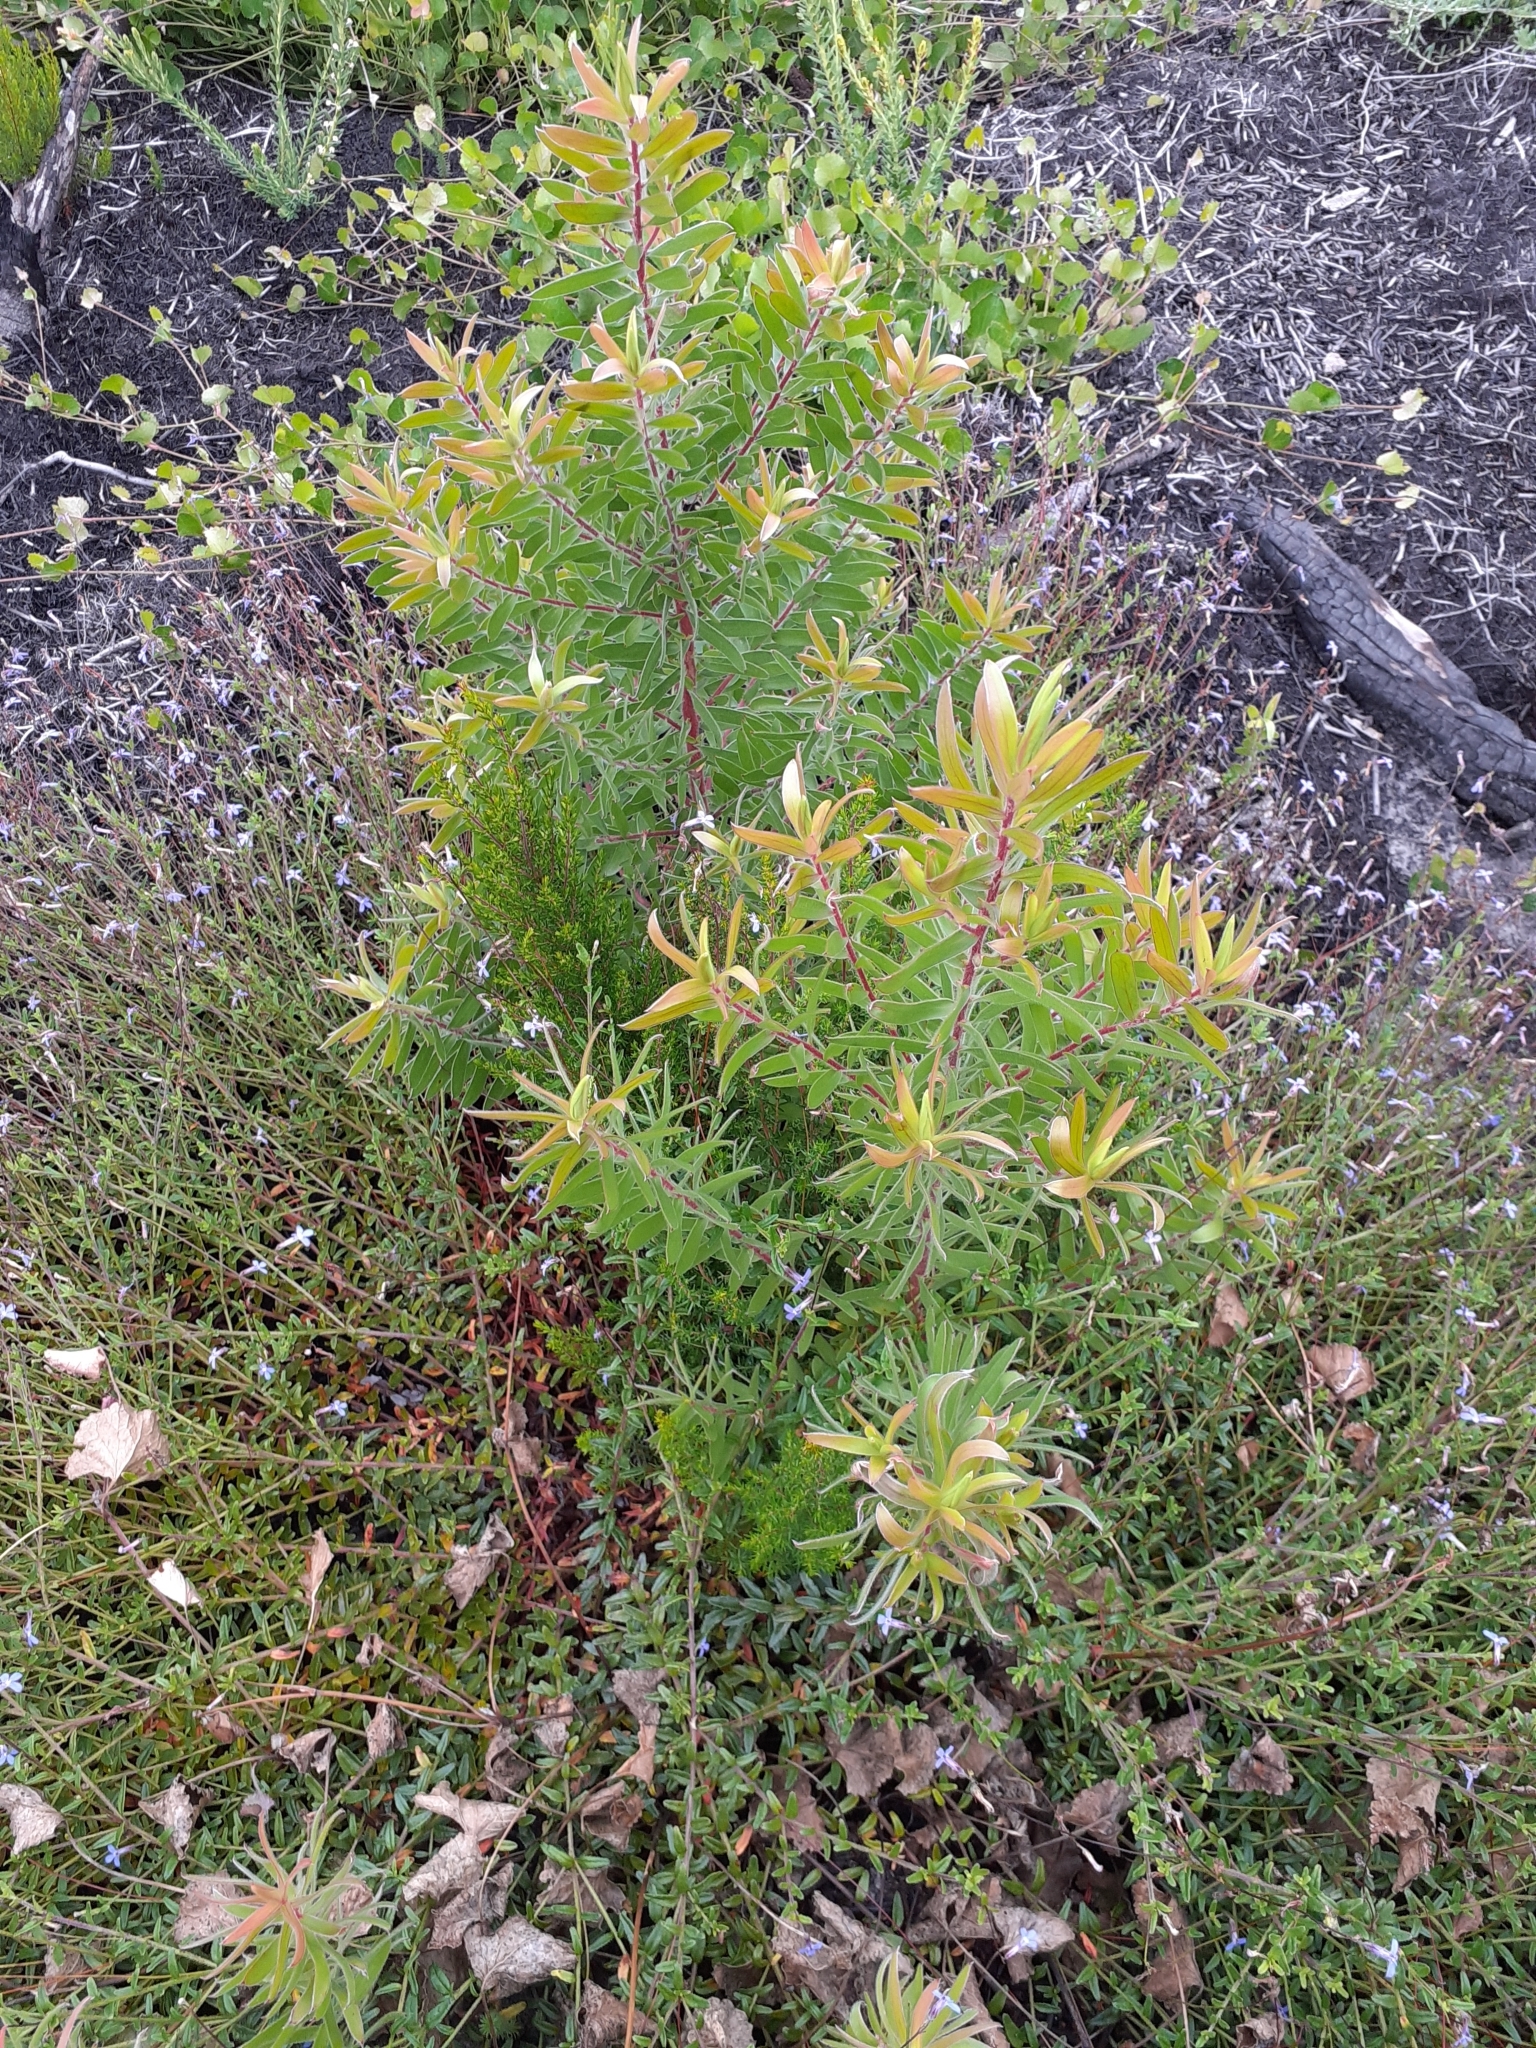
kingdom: Plantae
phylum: Tracheophyta
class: Magnoliopsida
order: Proteales
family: Proteaceae
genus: Leucadendron
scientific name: Leucadendron conicum
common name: Garden route conebush
